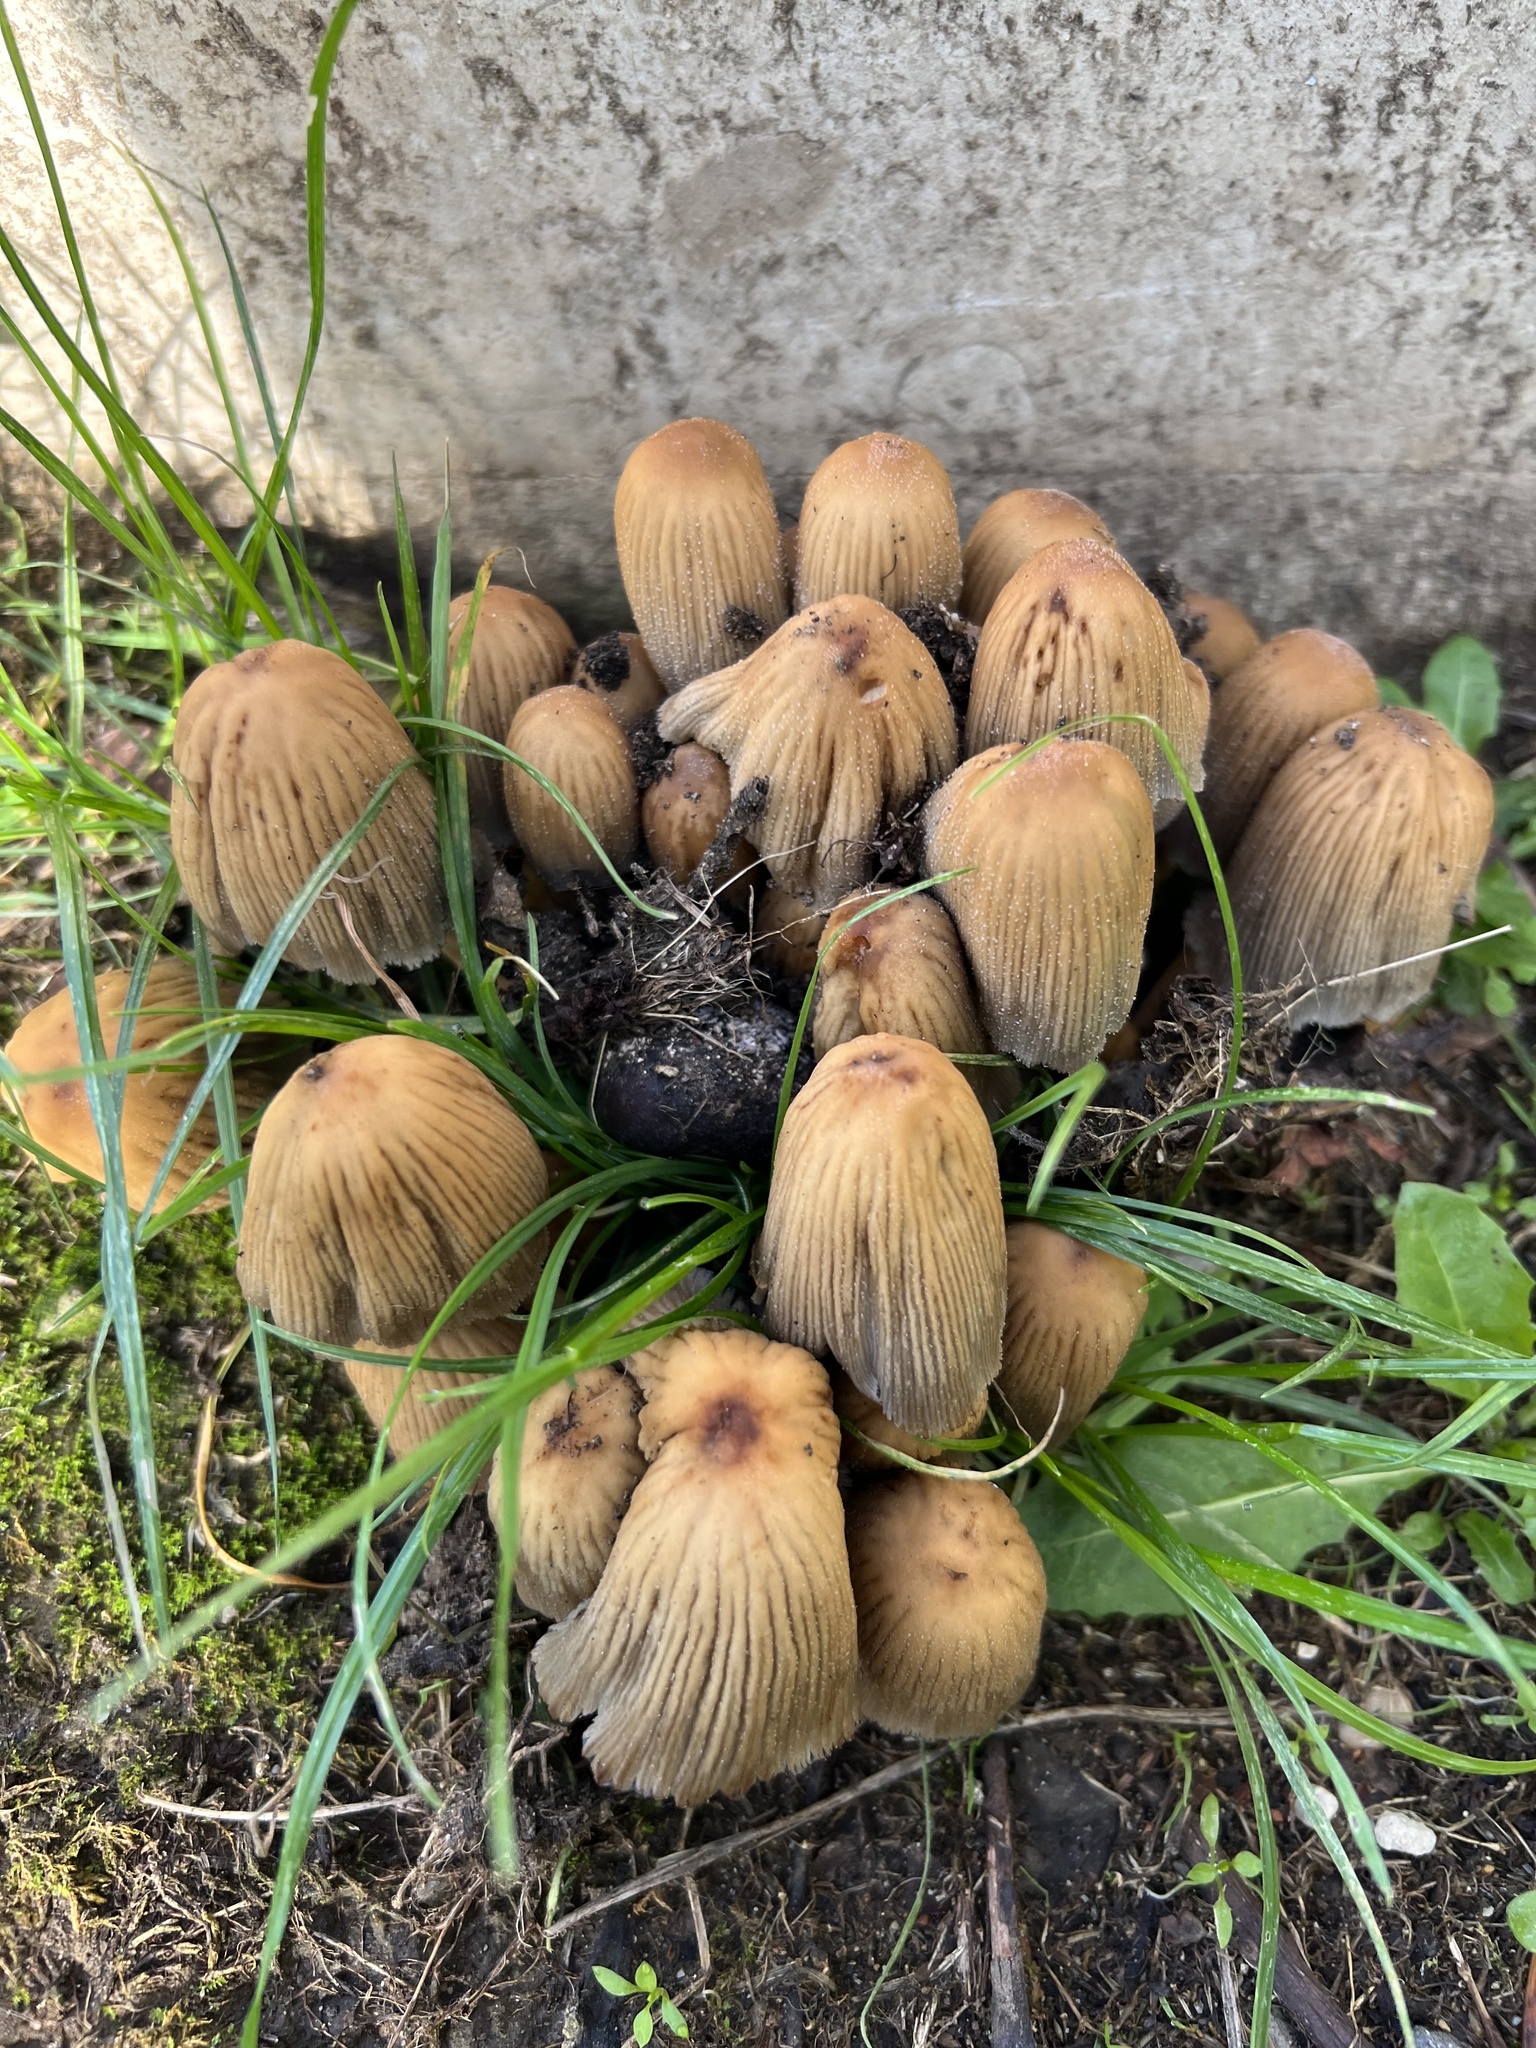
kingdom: Fungi
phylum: Basidiomycota
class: Agaricomycetes
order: Agaricales
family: Psathyrellaceae
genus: Coprinellus
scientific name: Coprinellus micaceus
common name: Glistening ink-cap
